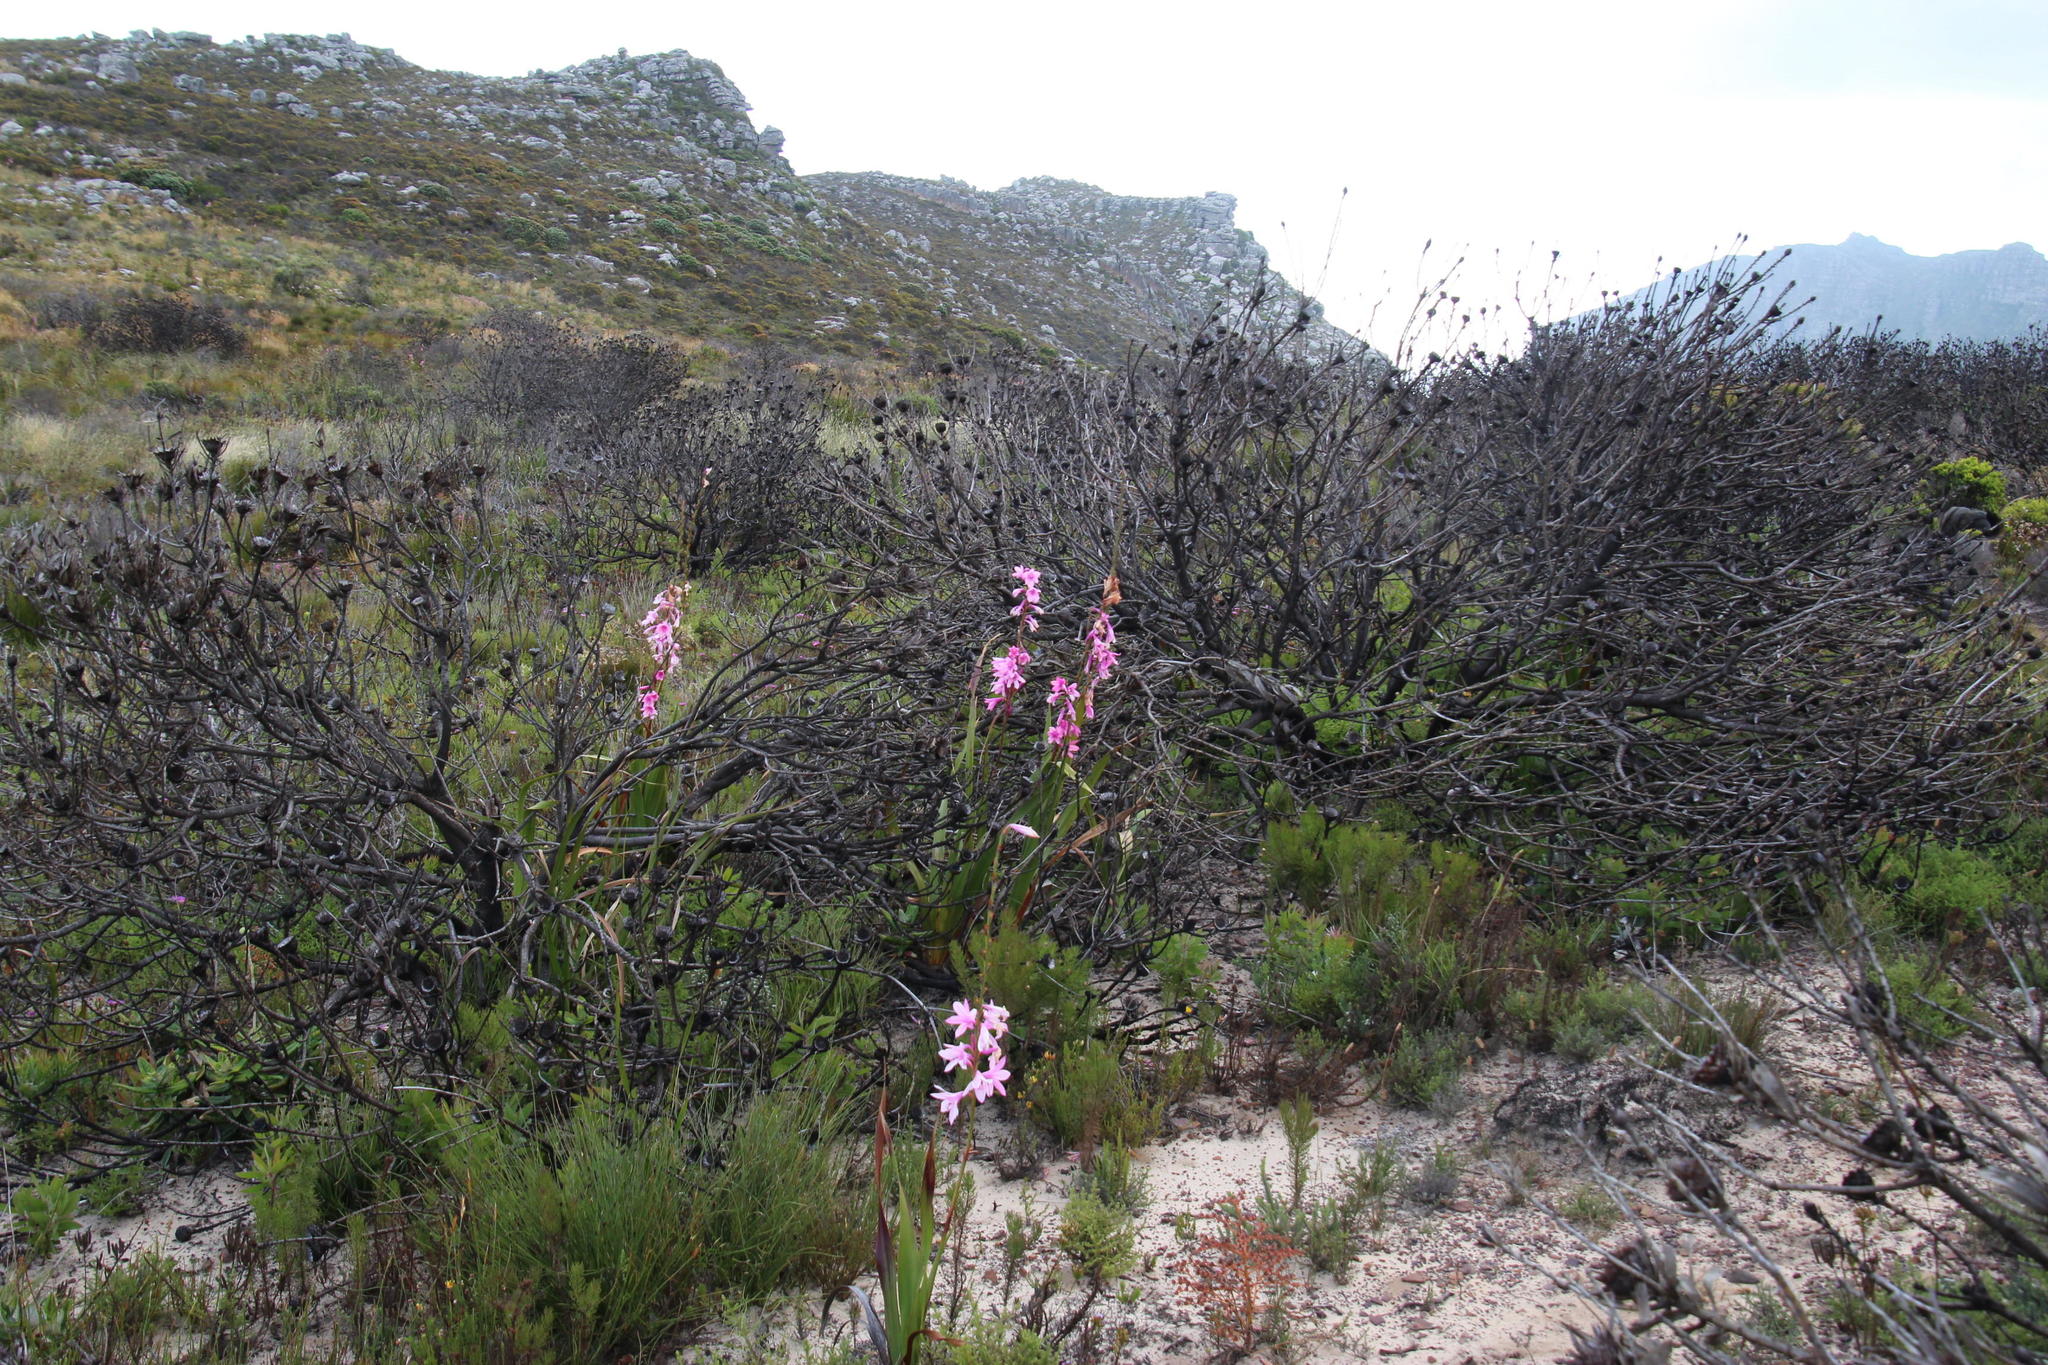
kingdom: Plantae
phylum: Tracheophyta
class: Liliopsida
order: Asparagales
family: Iridaceae
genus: Watsonia
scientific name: Watsonia borbonica
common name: Bugle-lily
